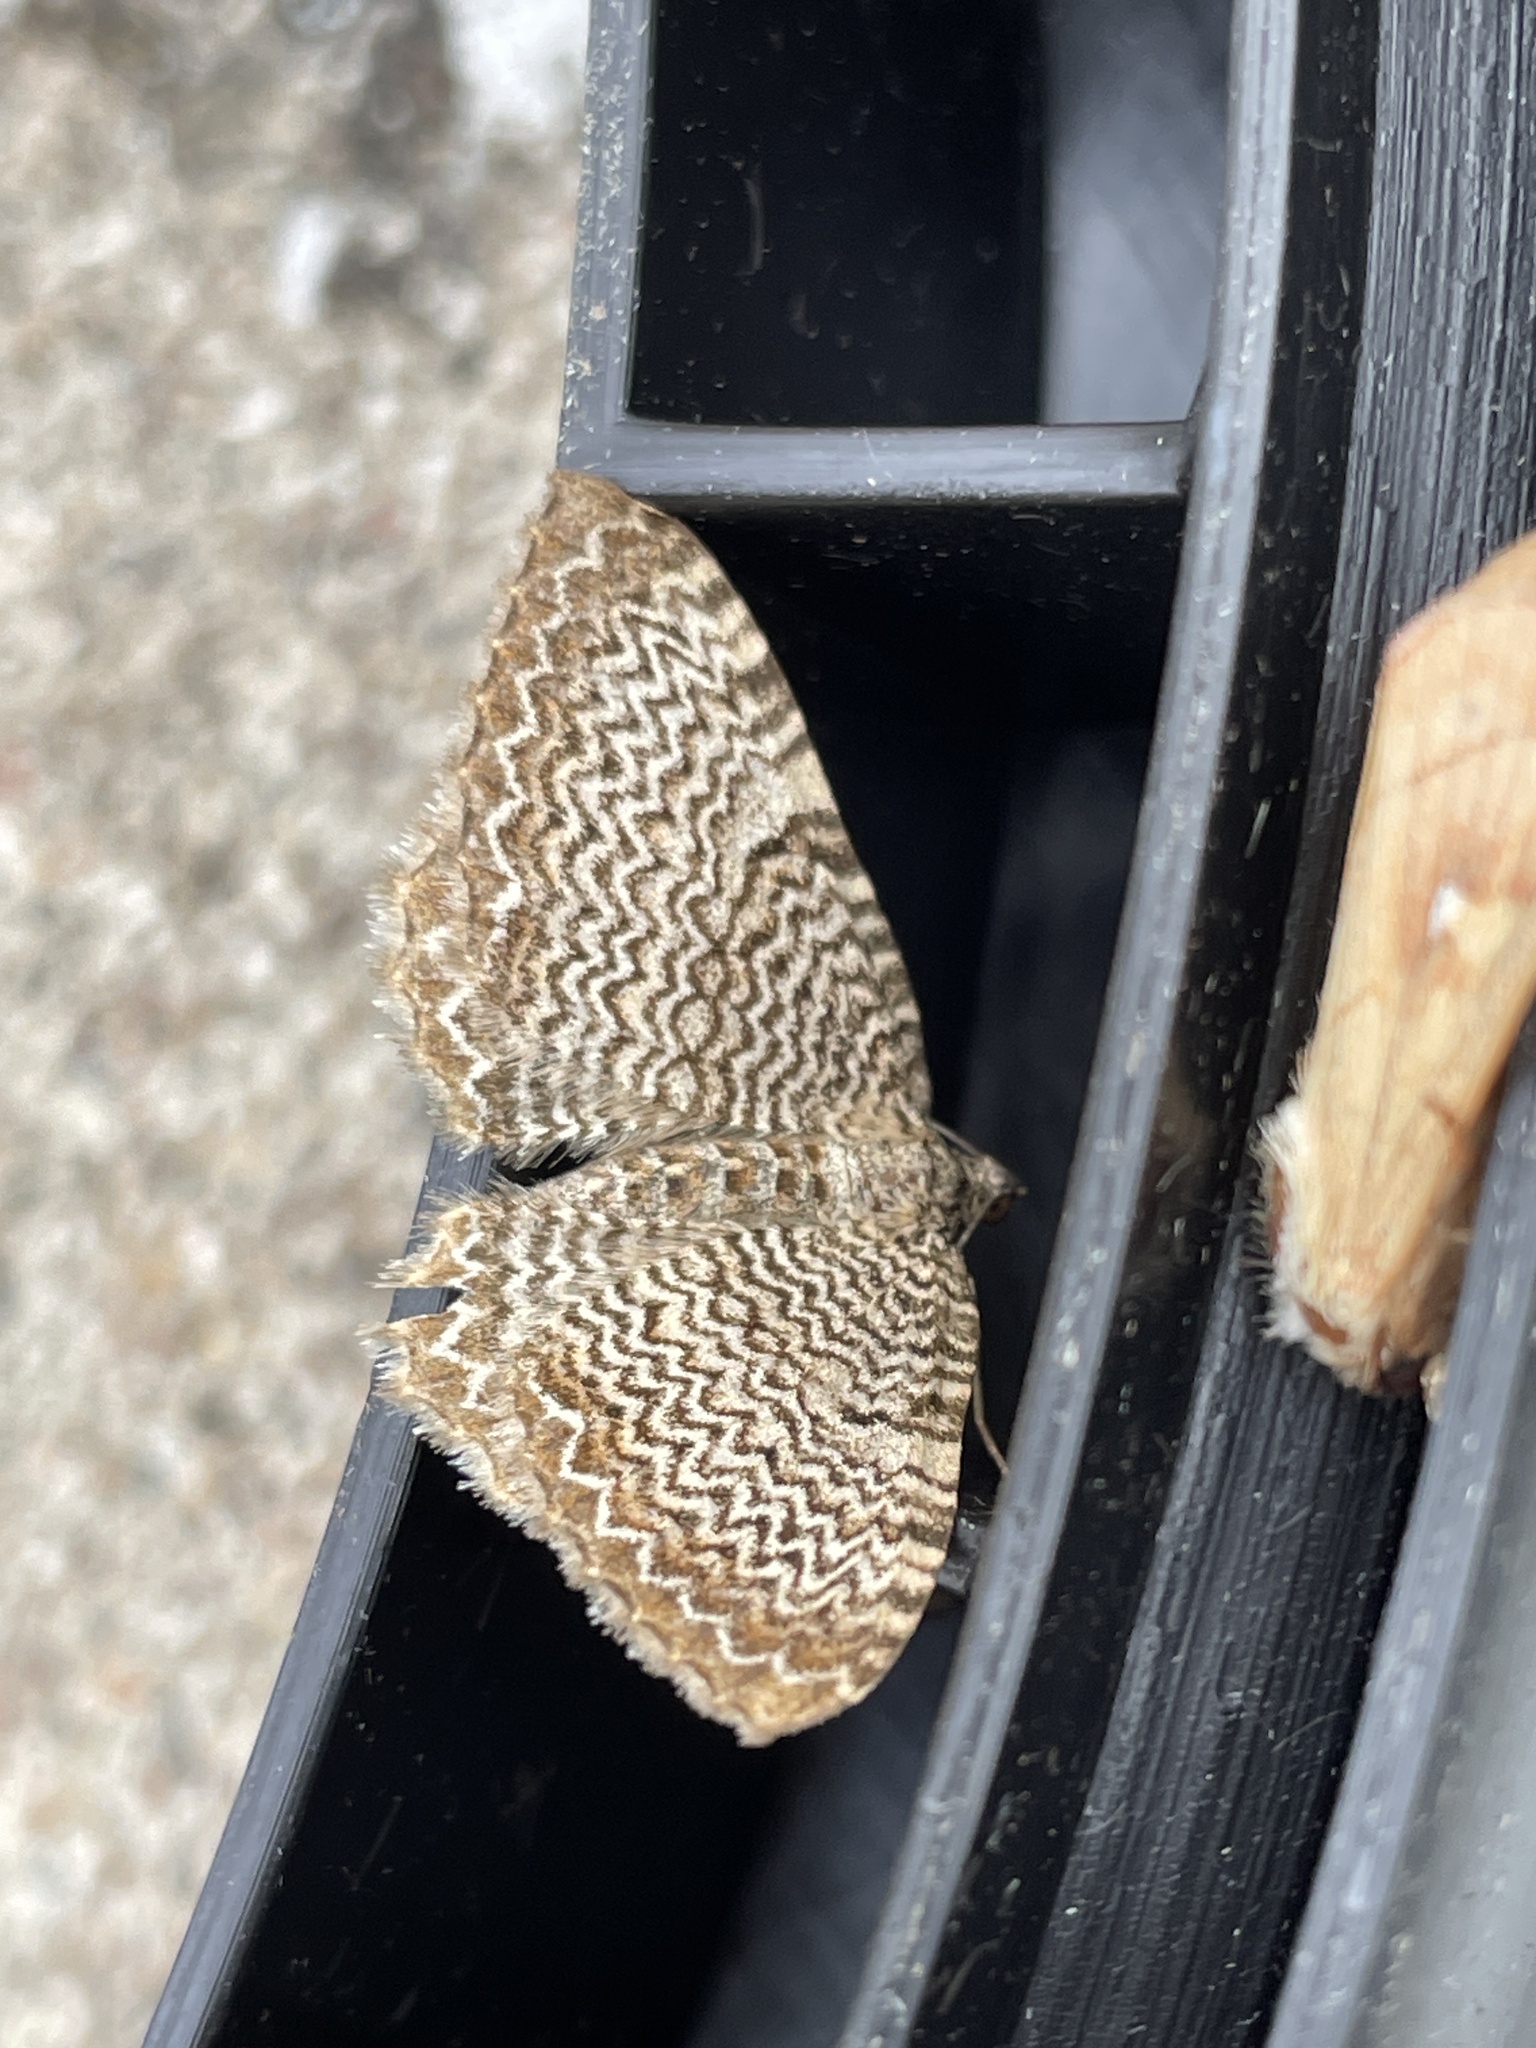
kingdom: Animalia
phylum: Arthropoda
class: Insecta
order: Lepidoptera
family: Geometridae
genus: Rheumaptera
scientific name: Rheumaptera undulata
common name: Scallop shell
